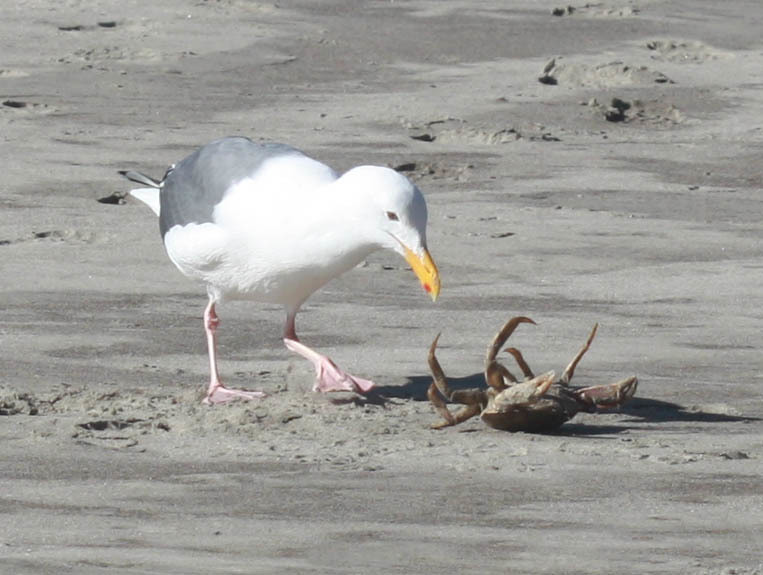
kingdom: Animalia
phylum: Arthropoda
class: Malacostraca
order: Decapoda
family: Cancridae
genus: Metacarcinus
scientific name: Metacarcinus magister
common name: Californian crab
